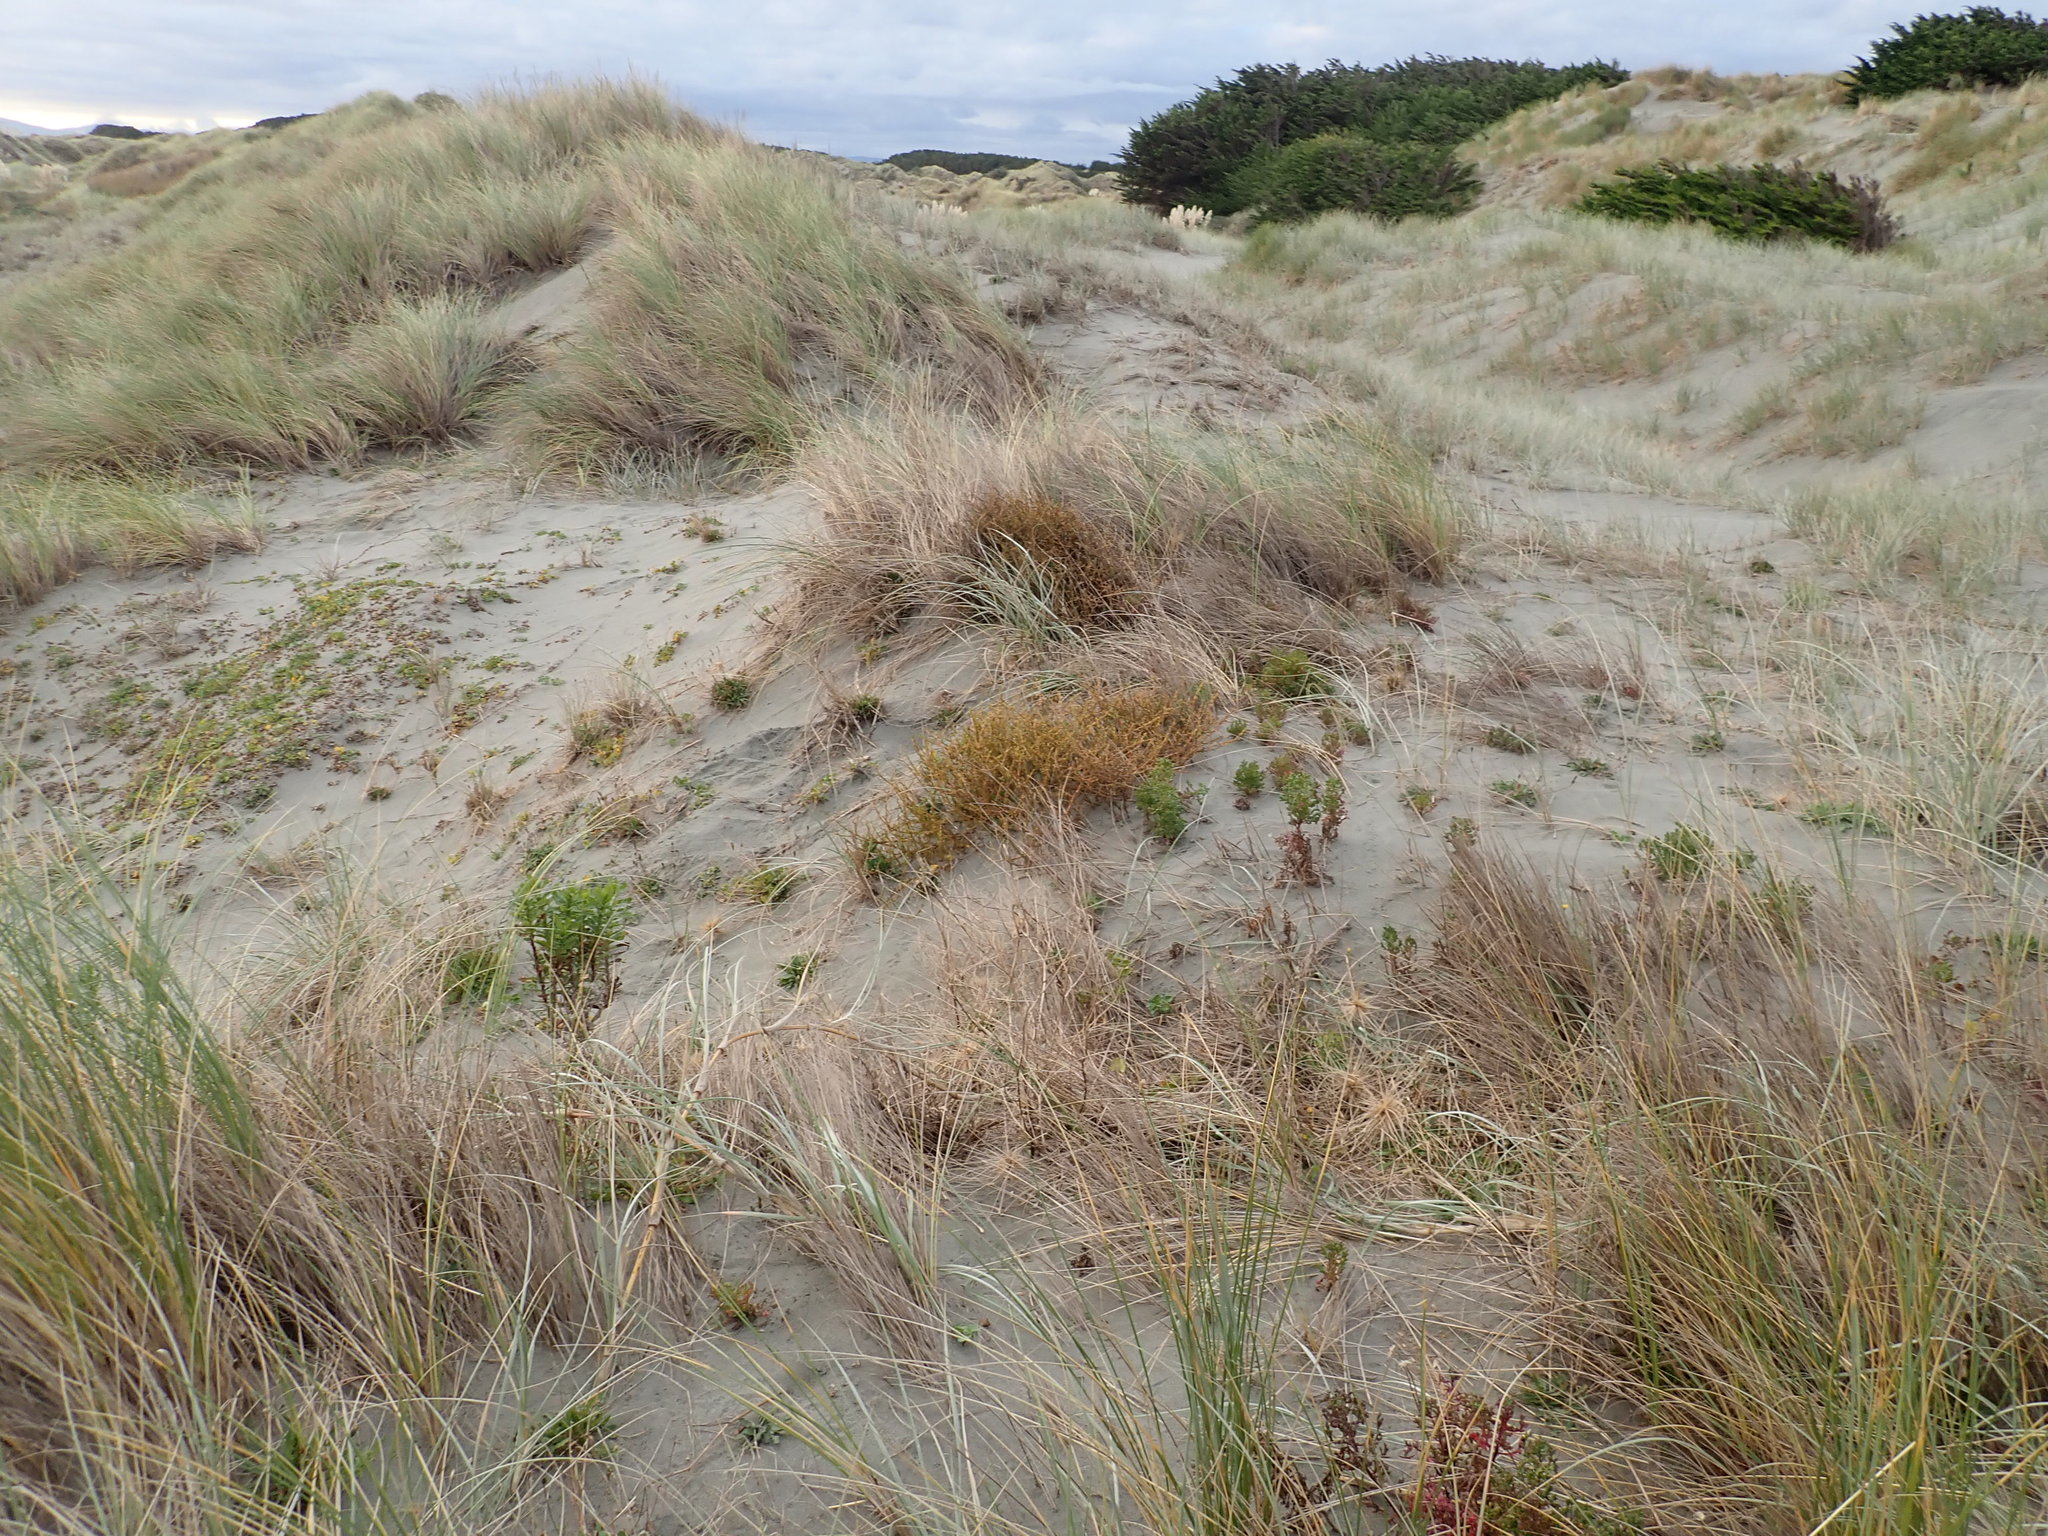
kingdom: Plantae
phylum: Tracheophyta
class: Magnoliopsida
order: Gentianales
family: Rubiaceae
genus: Coprosma
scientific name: Coprosma acerosa
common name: Sand coprosma
